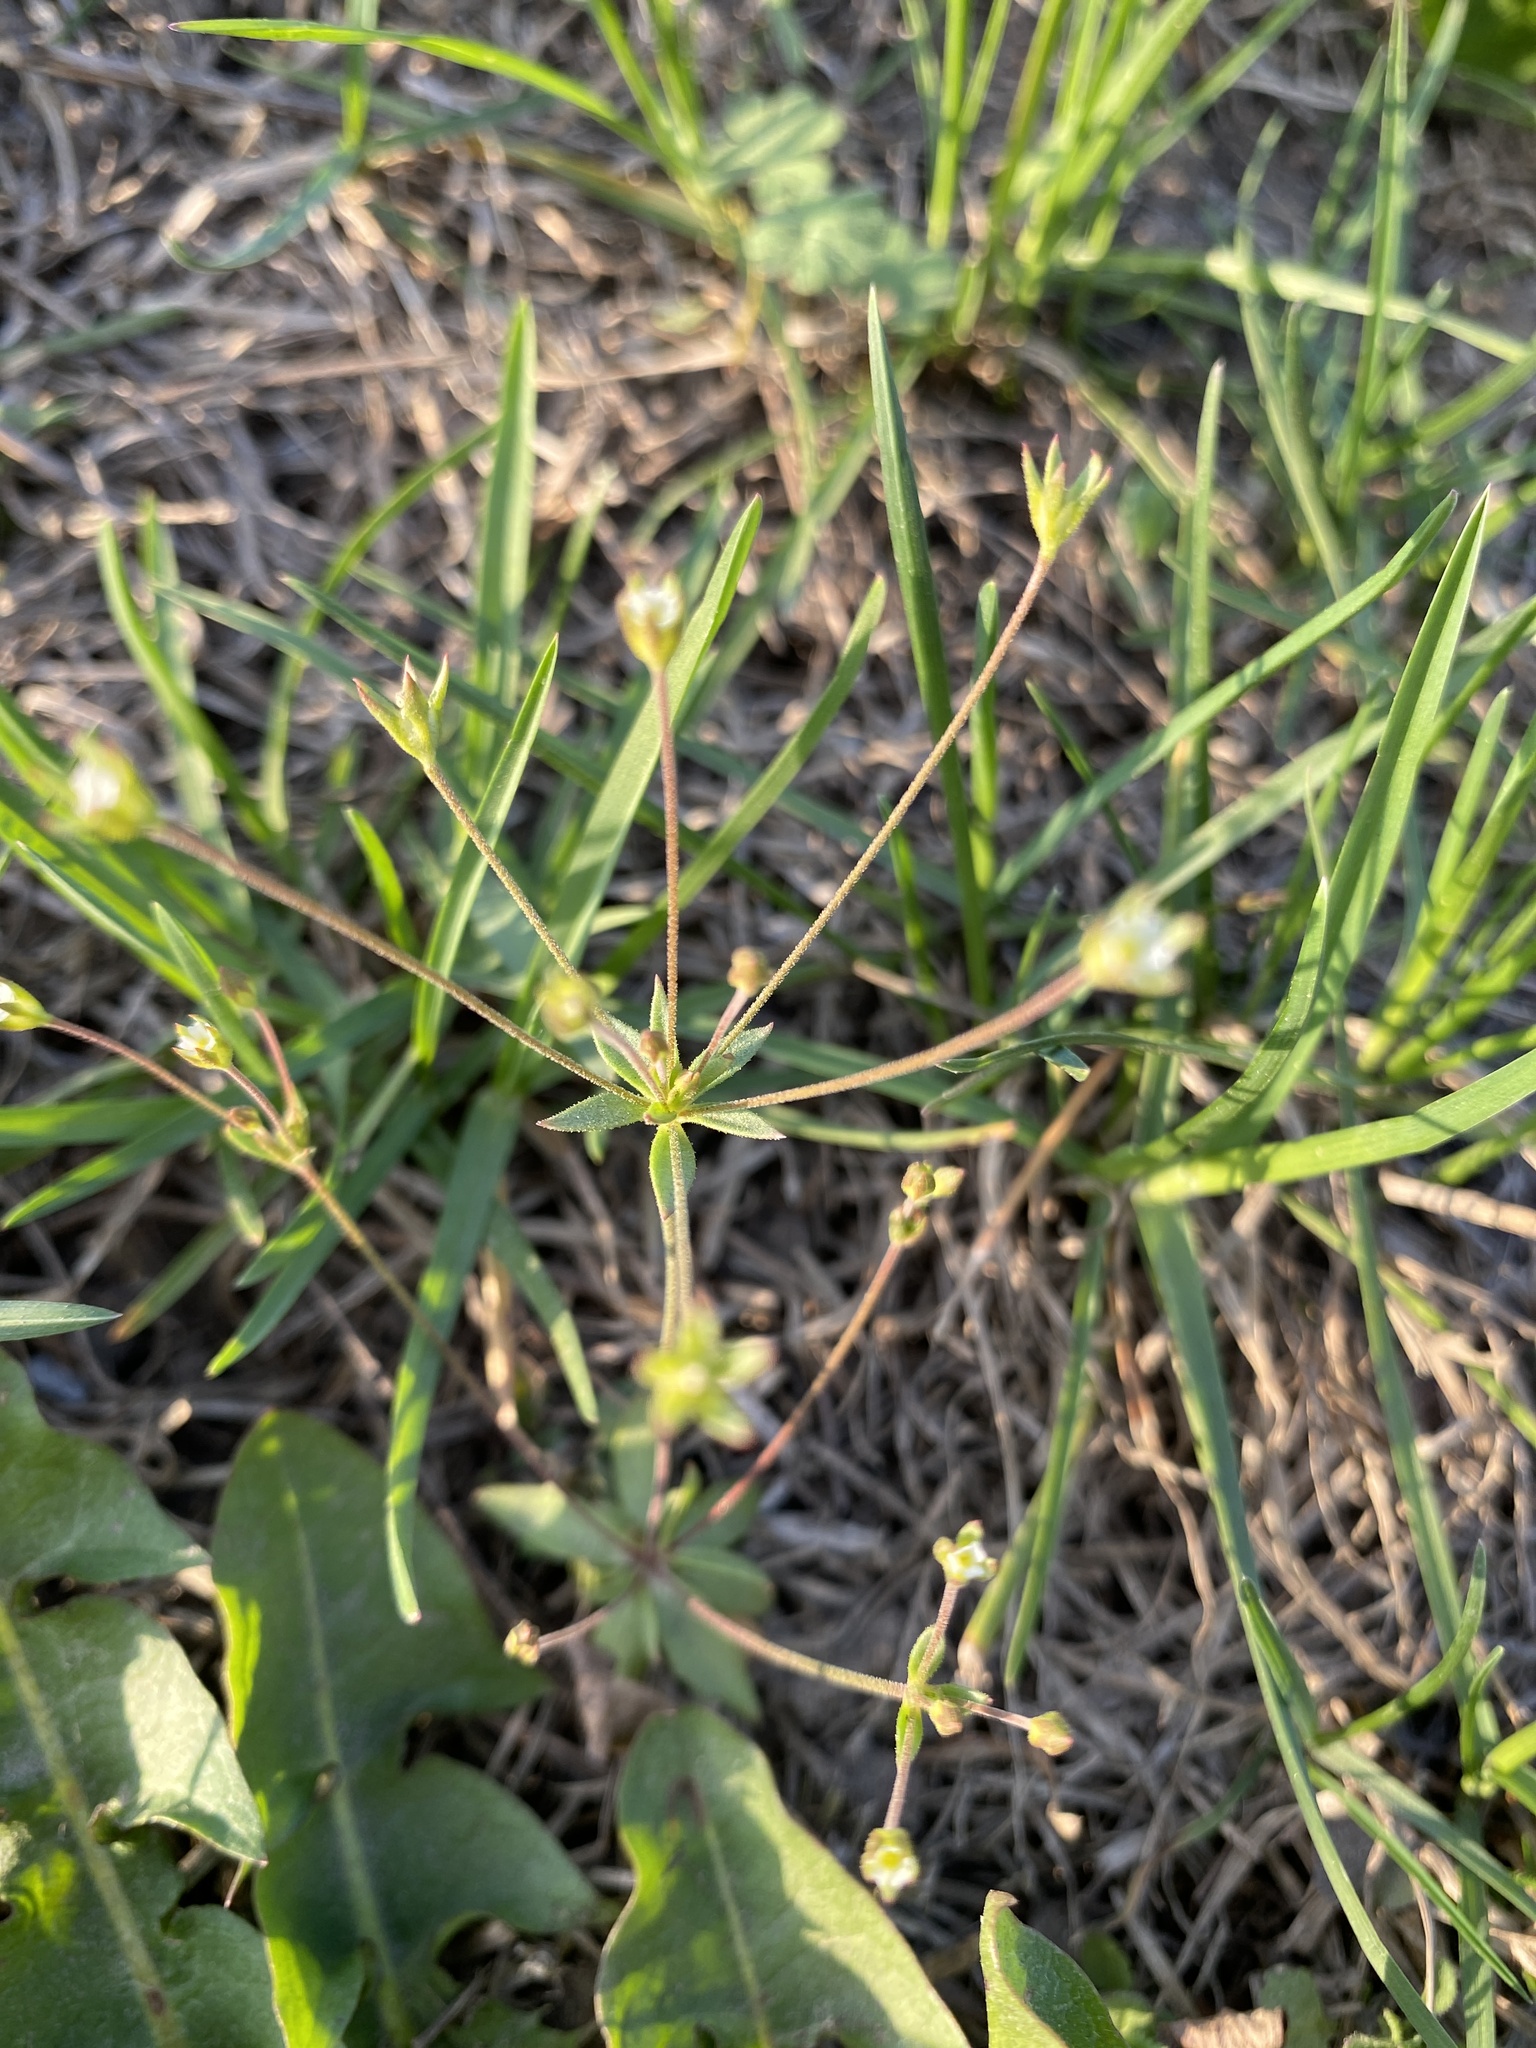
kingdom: Plantae
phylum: Tracheophyta
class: Magnoliopsida
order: Ericales
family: Primulaceae
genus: Androsace
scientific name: Androsace elongata
